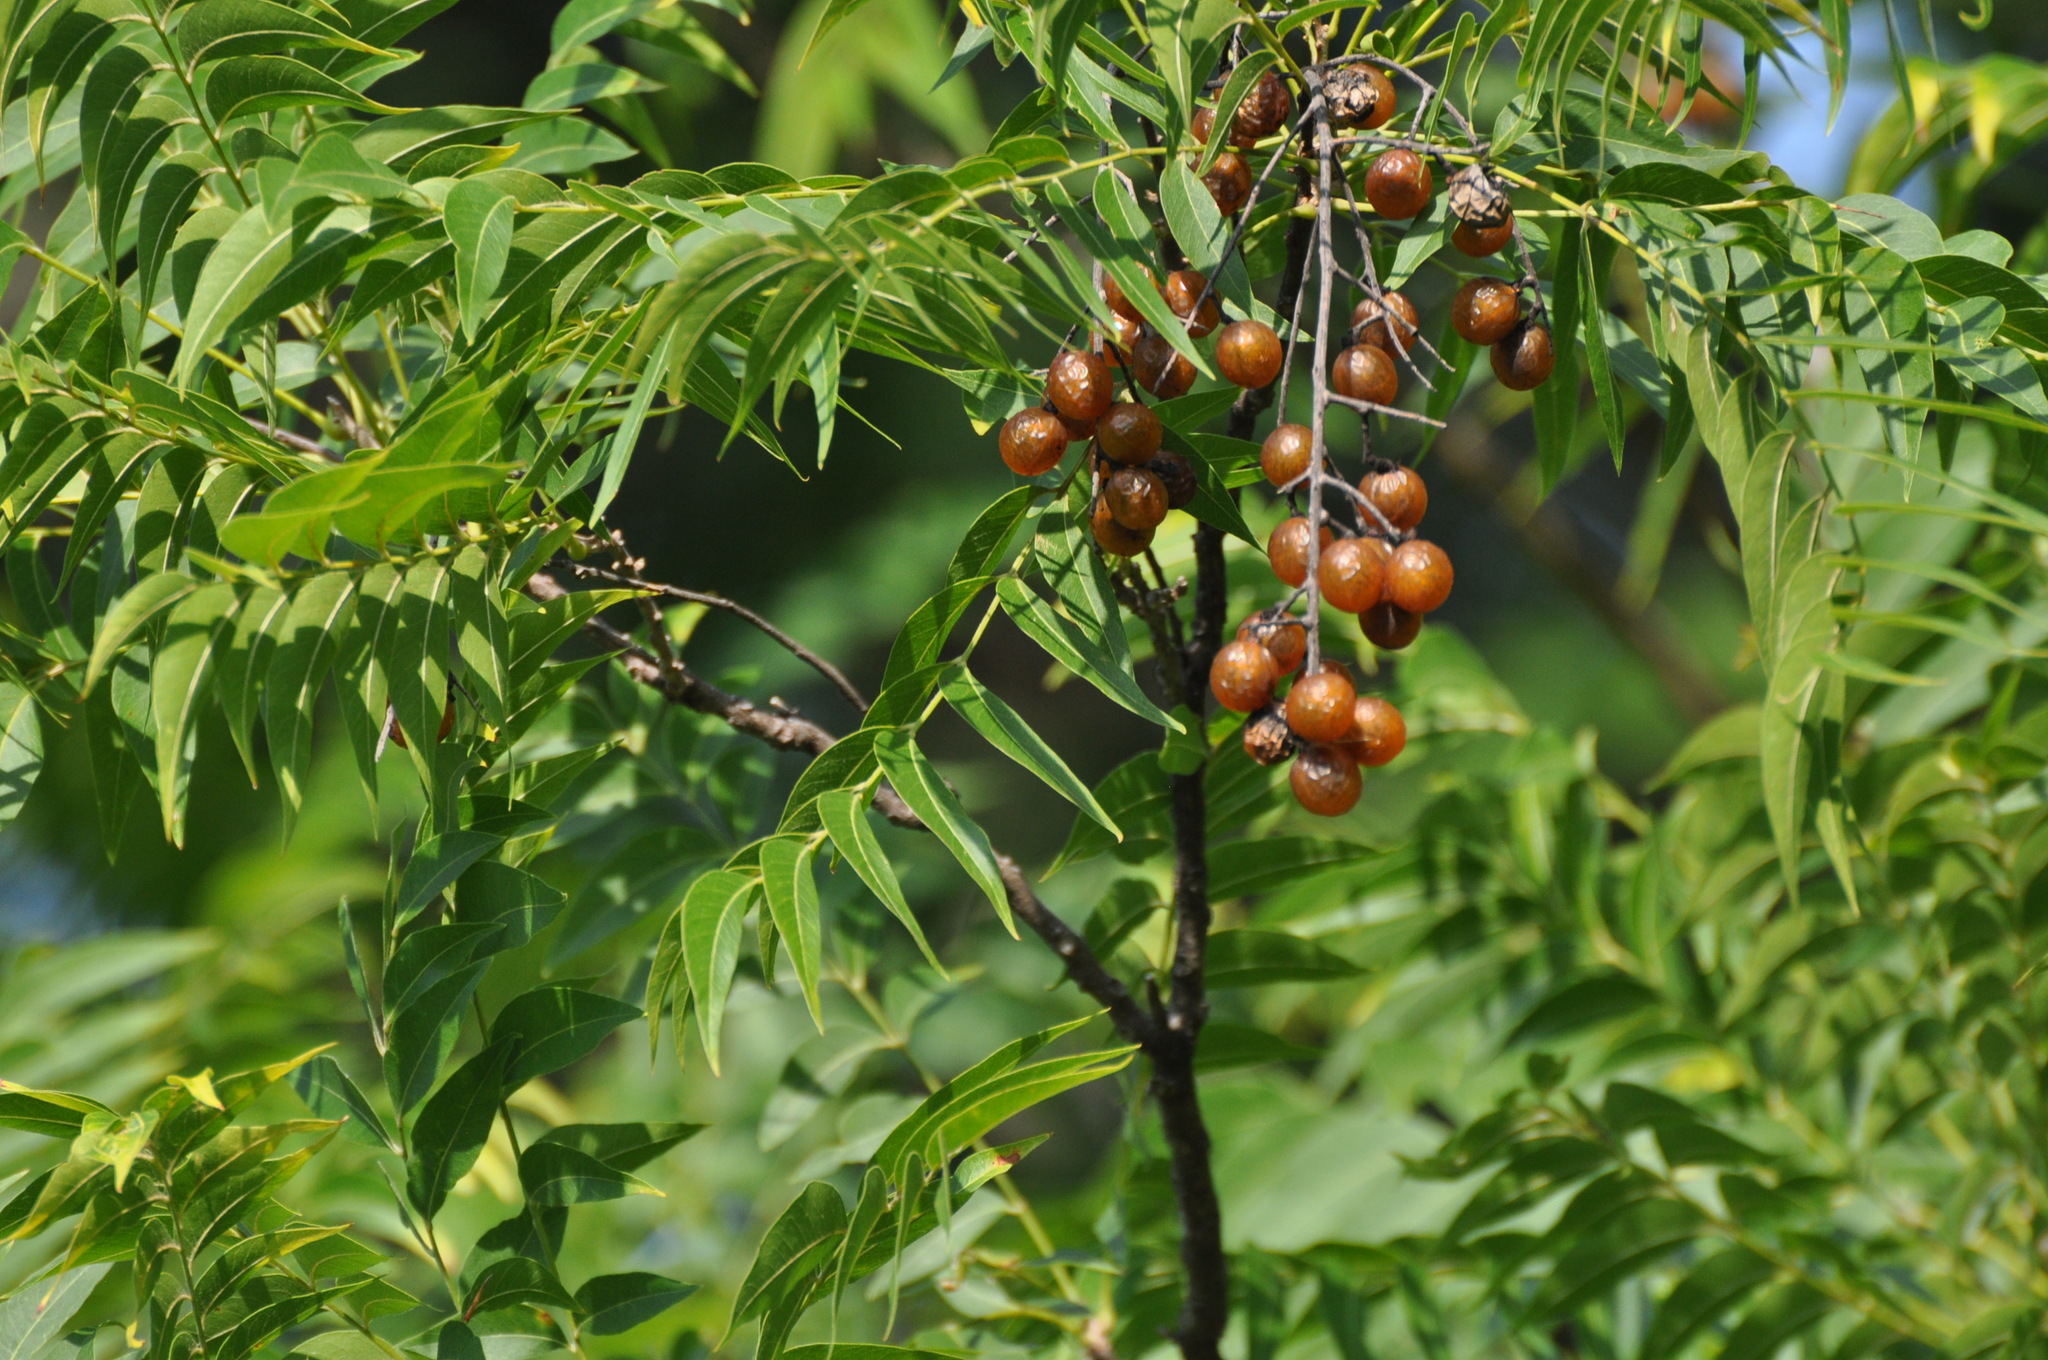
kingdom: Plantae
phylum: Tracheophyta
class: Magnoliopsida
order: Sapindales
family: Sapindaceae
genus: Sapindus
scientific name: Sapindus drummondii
